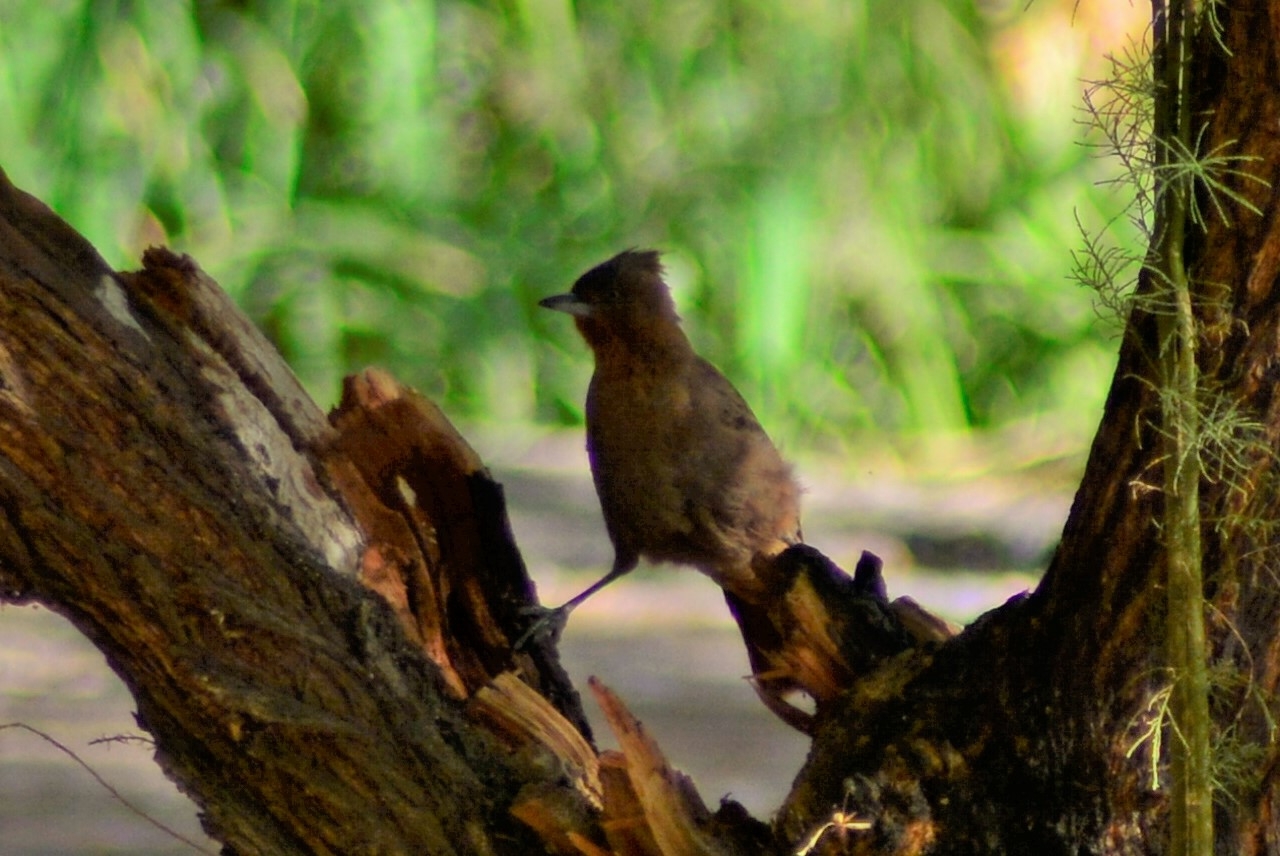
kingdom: Animalia
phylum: Chordata
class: Aves
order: Passeriformes
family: Furnariidae
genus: Pseudoseisura
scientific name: Pseudoseisura lophotes
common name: Brown cacholote
